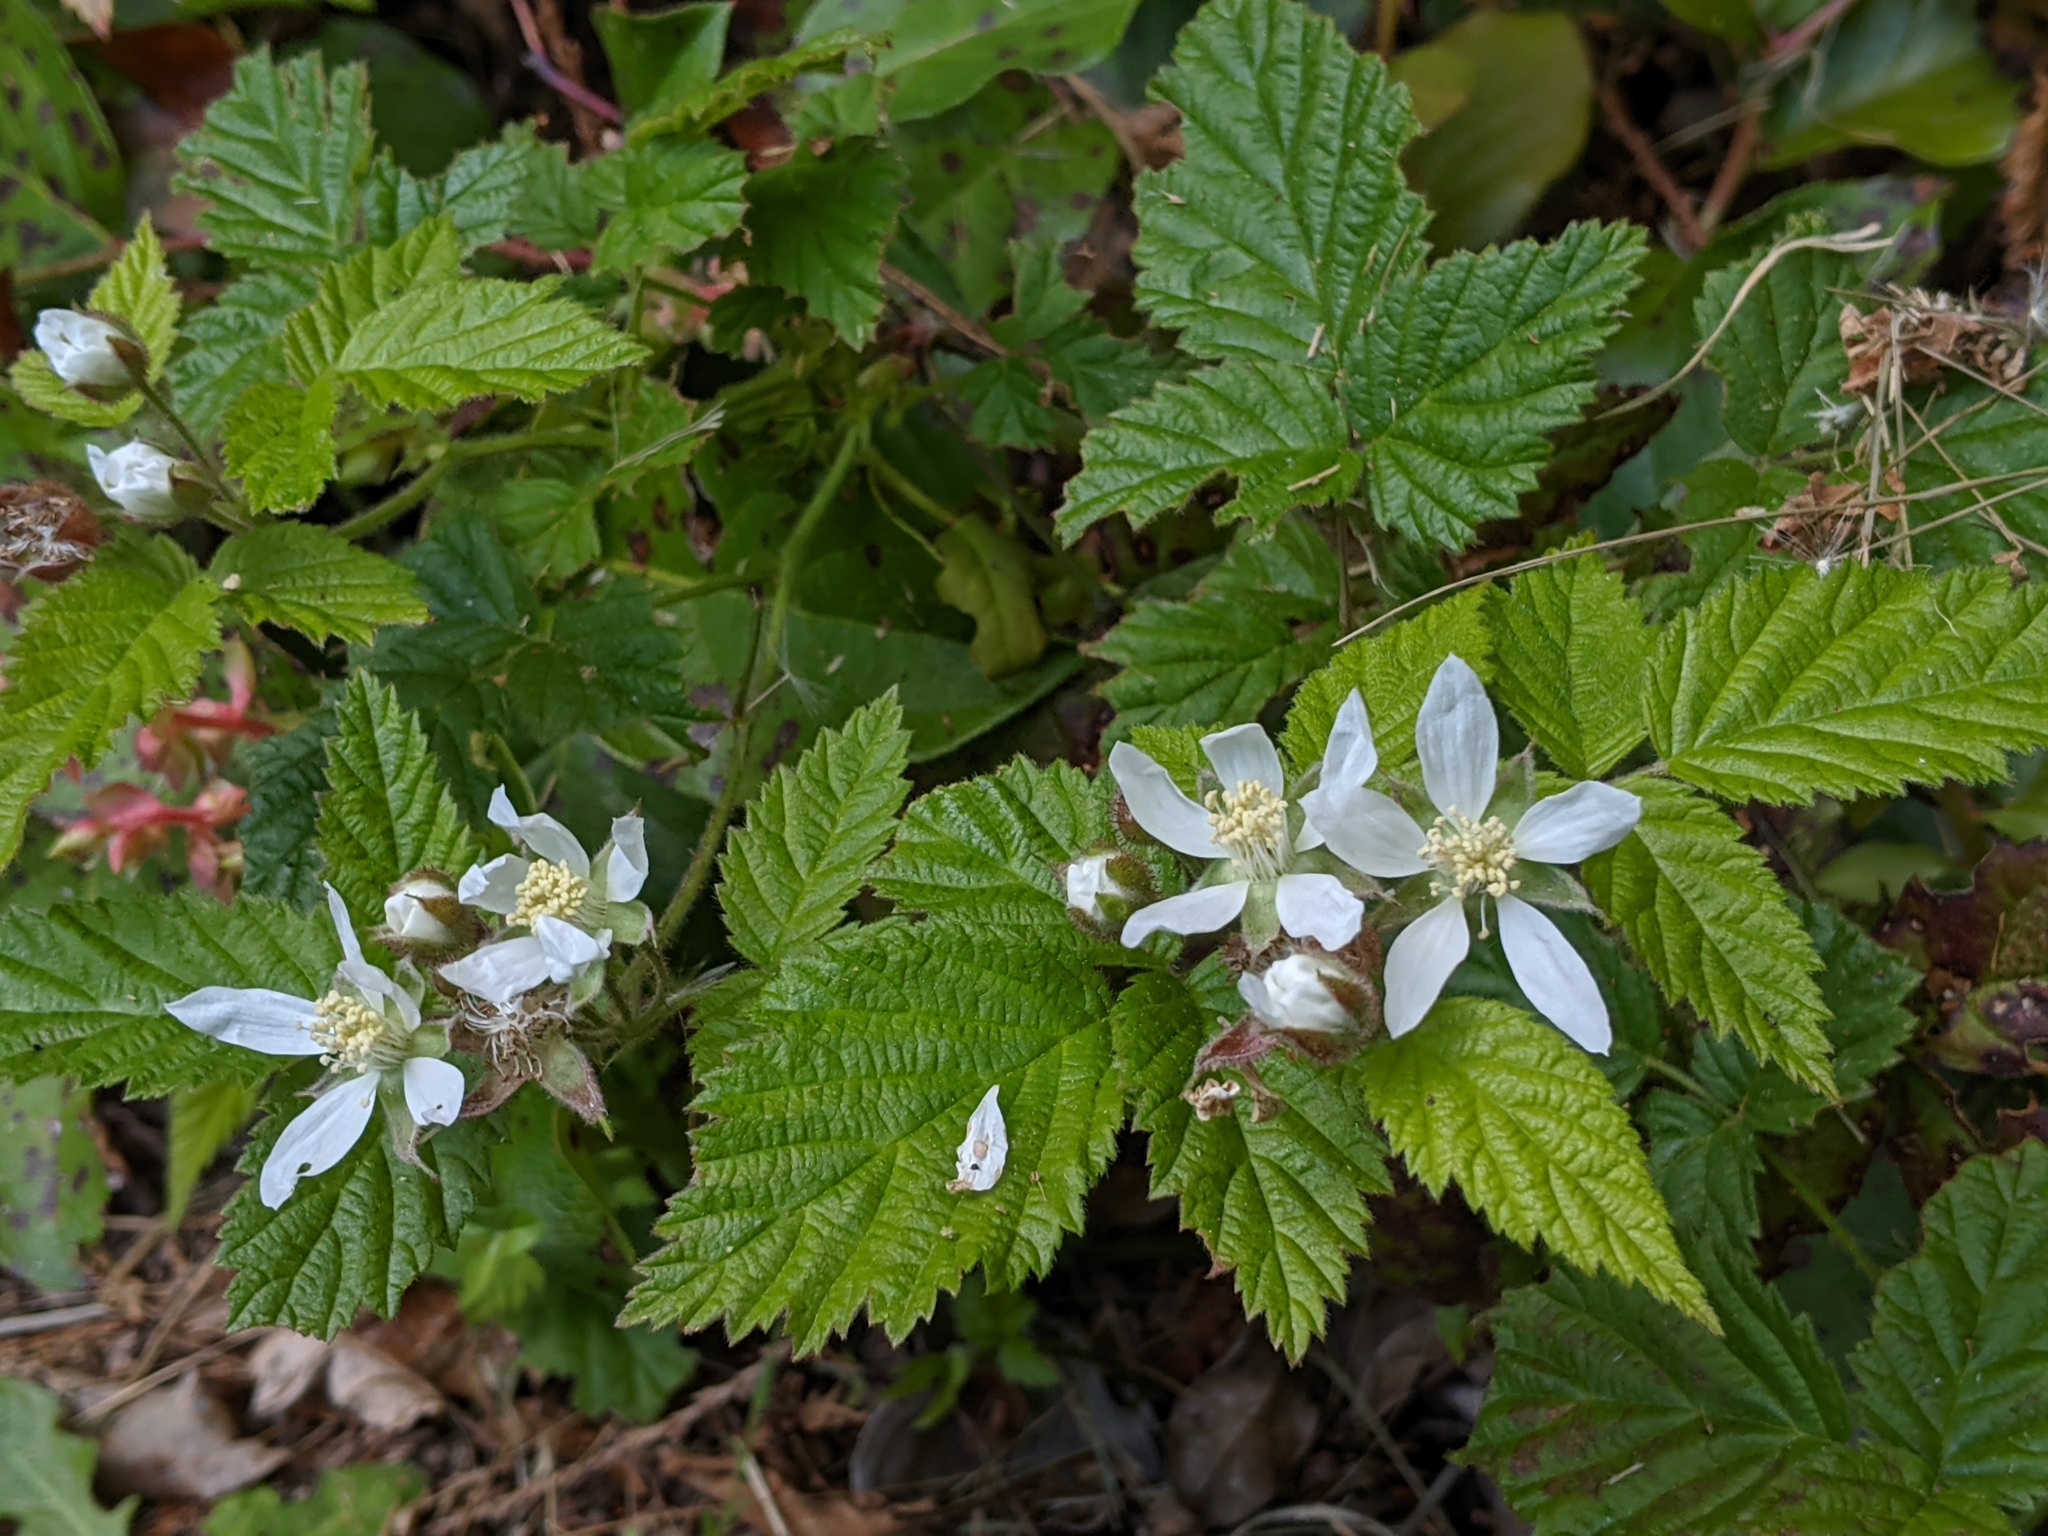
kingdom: Plantae
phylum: Tracheophyta
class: Magnoliopsida
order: Rosales
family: Rosaceae
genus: Rubus
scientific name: Rubus ursinus
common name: Pacific blackberry
